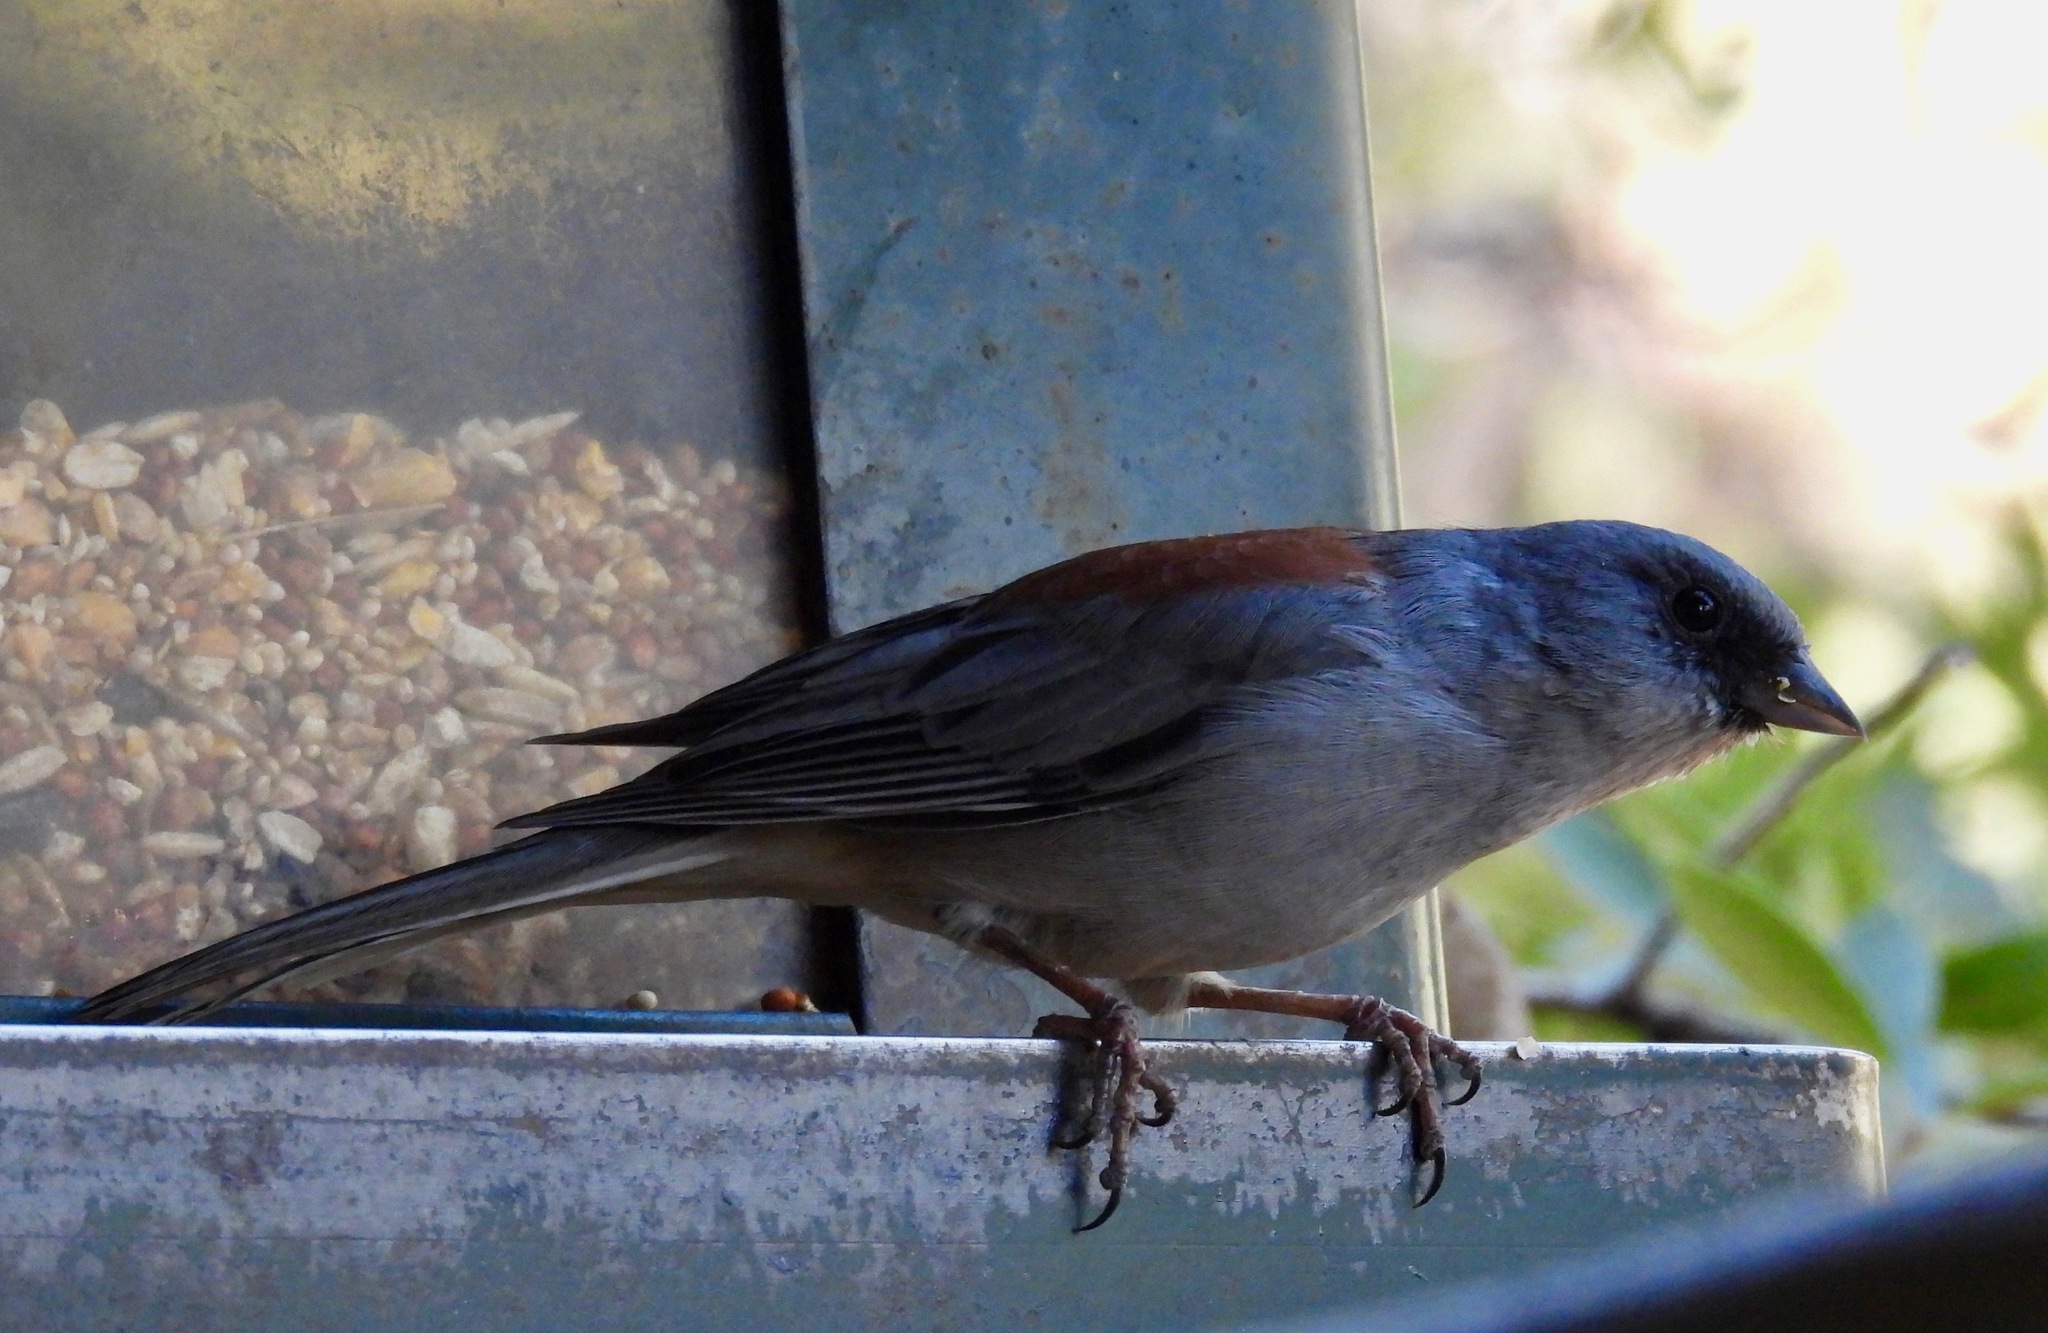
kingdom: Animalia
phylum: Chordata
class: Aves
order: Passeriformes
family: Passerellidae
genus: Junco
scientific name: Junco hyemalis
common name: Dark-eyed junco
